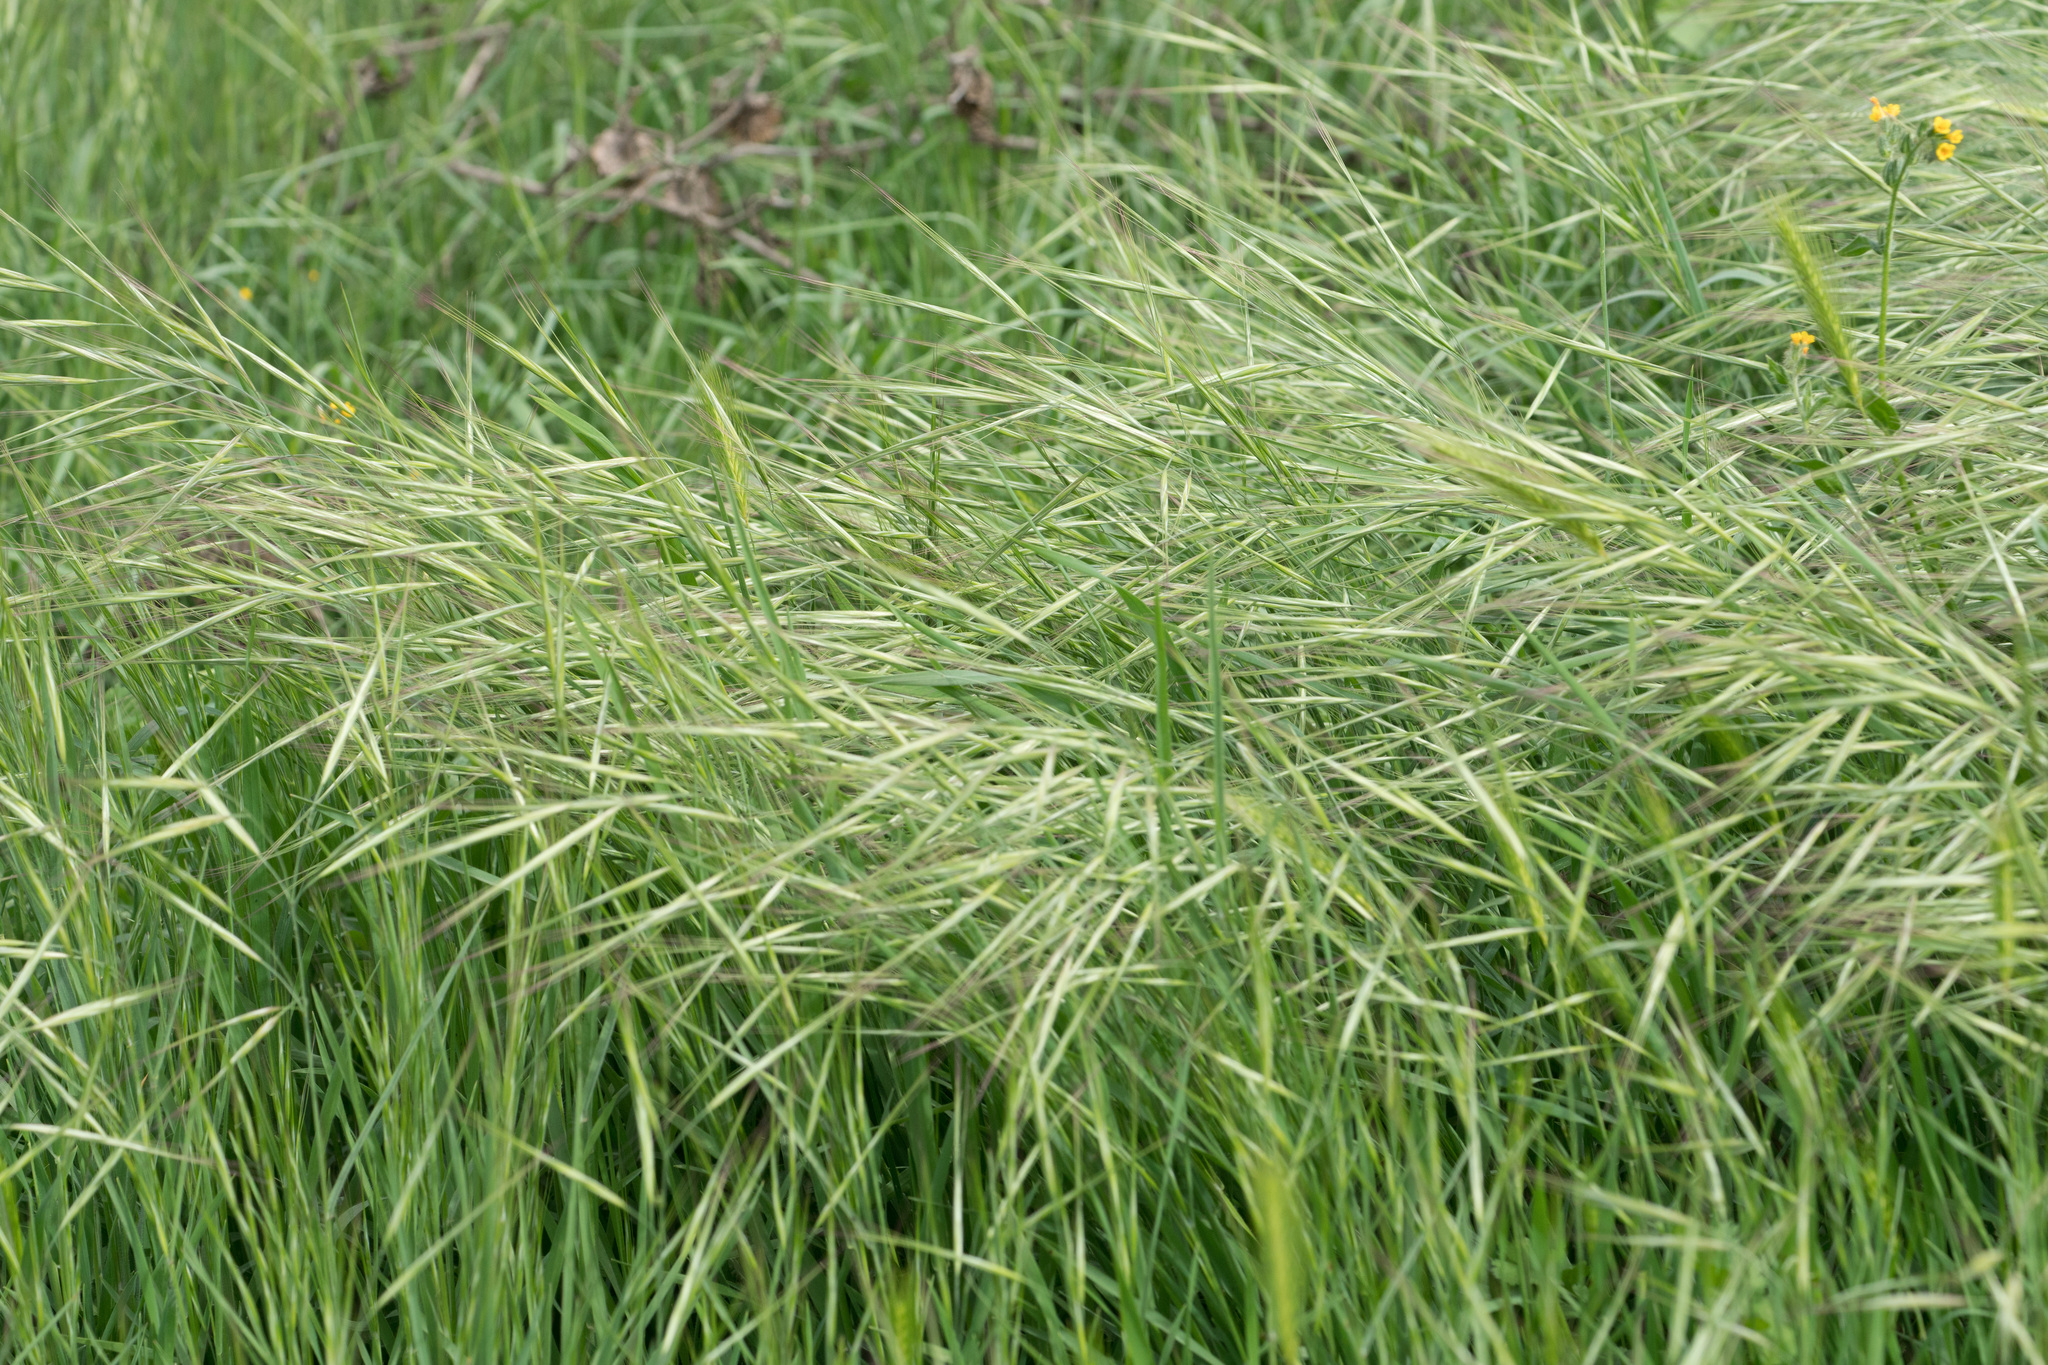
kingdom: Plantae
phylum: Tracheophyta
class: Liliopsida
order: Poales
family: Poaceae
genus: Bromus
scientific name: Bromus diandrus
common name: Ripgut brome
